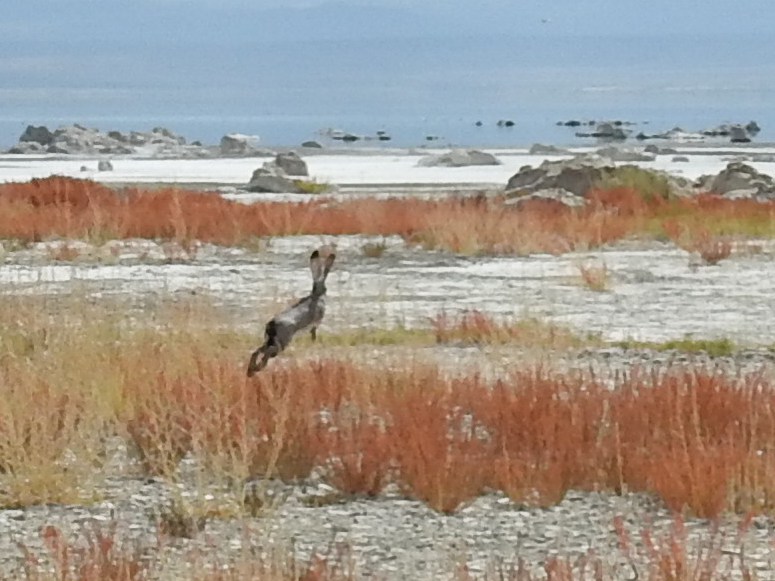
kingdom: Animalia
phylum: Chordata
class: Mammalia
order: Lagomorpha
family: Leporidae
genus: Lepus
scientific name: Lepus californicus
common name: Black-tailed jackrabbit
